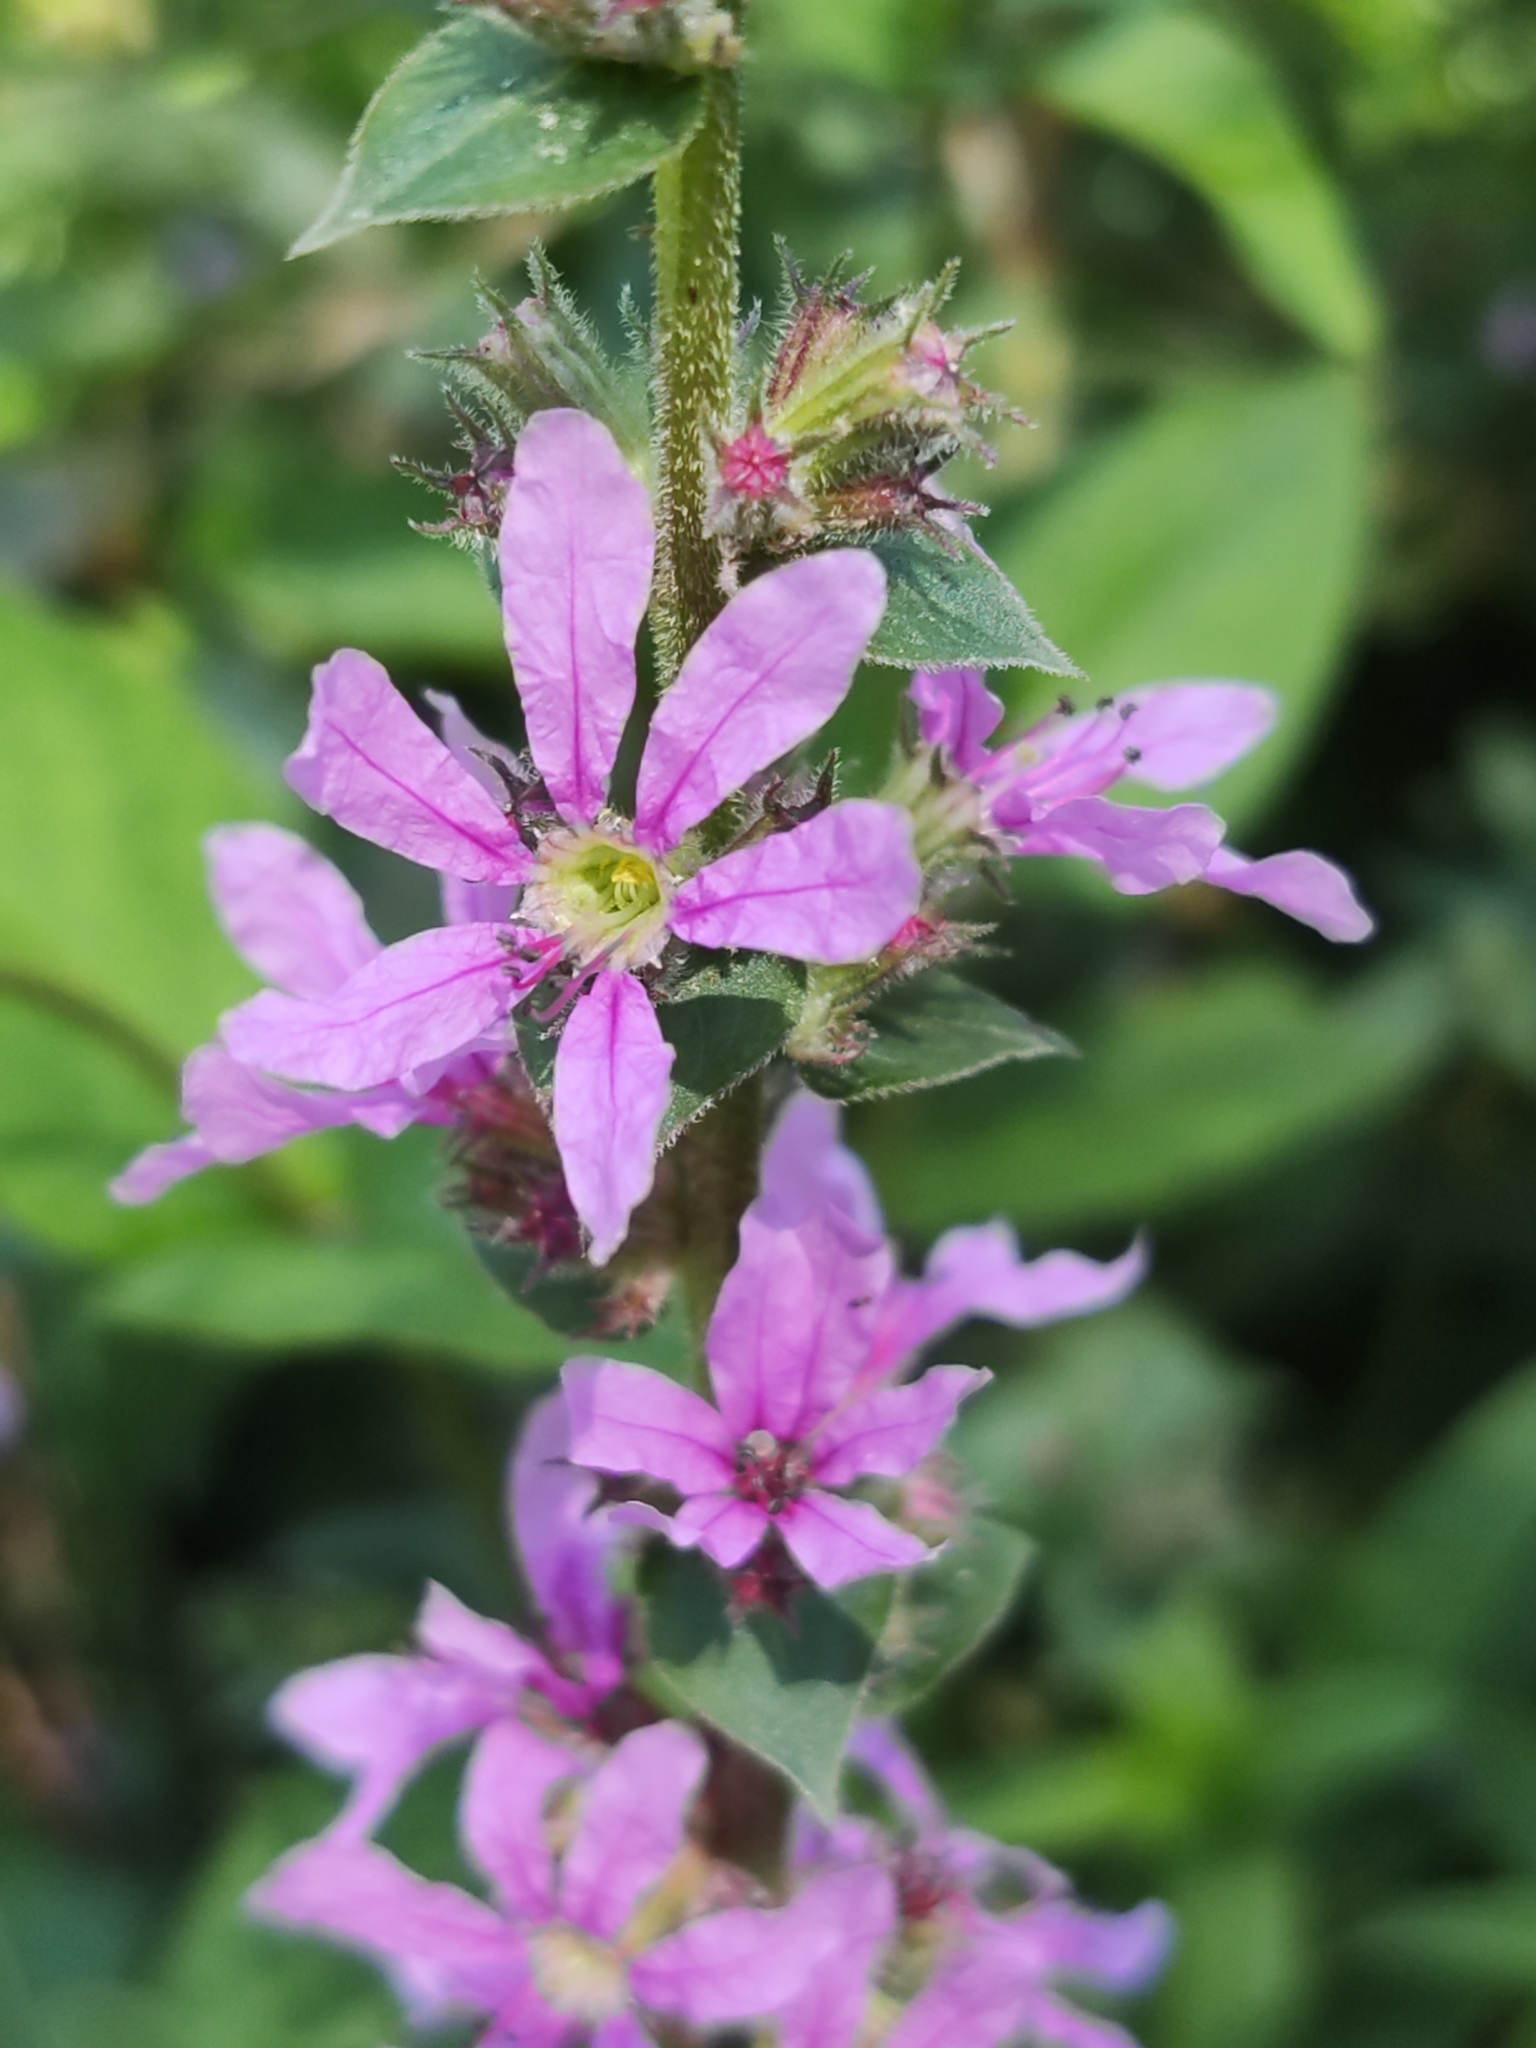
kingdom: Plantae
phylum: Tracheophyta
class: Magnoliopsida
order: Myrtales
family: Lythraceae
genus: Lythrum
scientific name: Lythrum salicaria
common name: Purple loosestrife
